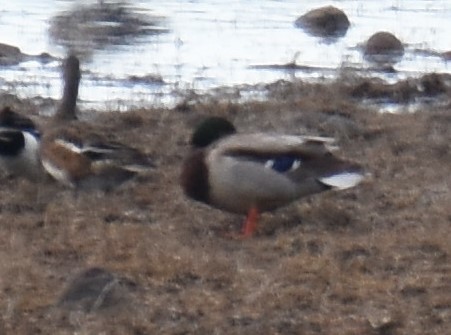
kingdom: Animalia
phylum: Chordata
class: Aves
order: Anseriformes
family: Anatidae
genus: Anas
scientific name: Anas platyrhynchos
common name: Mallard
